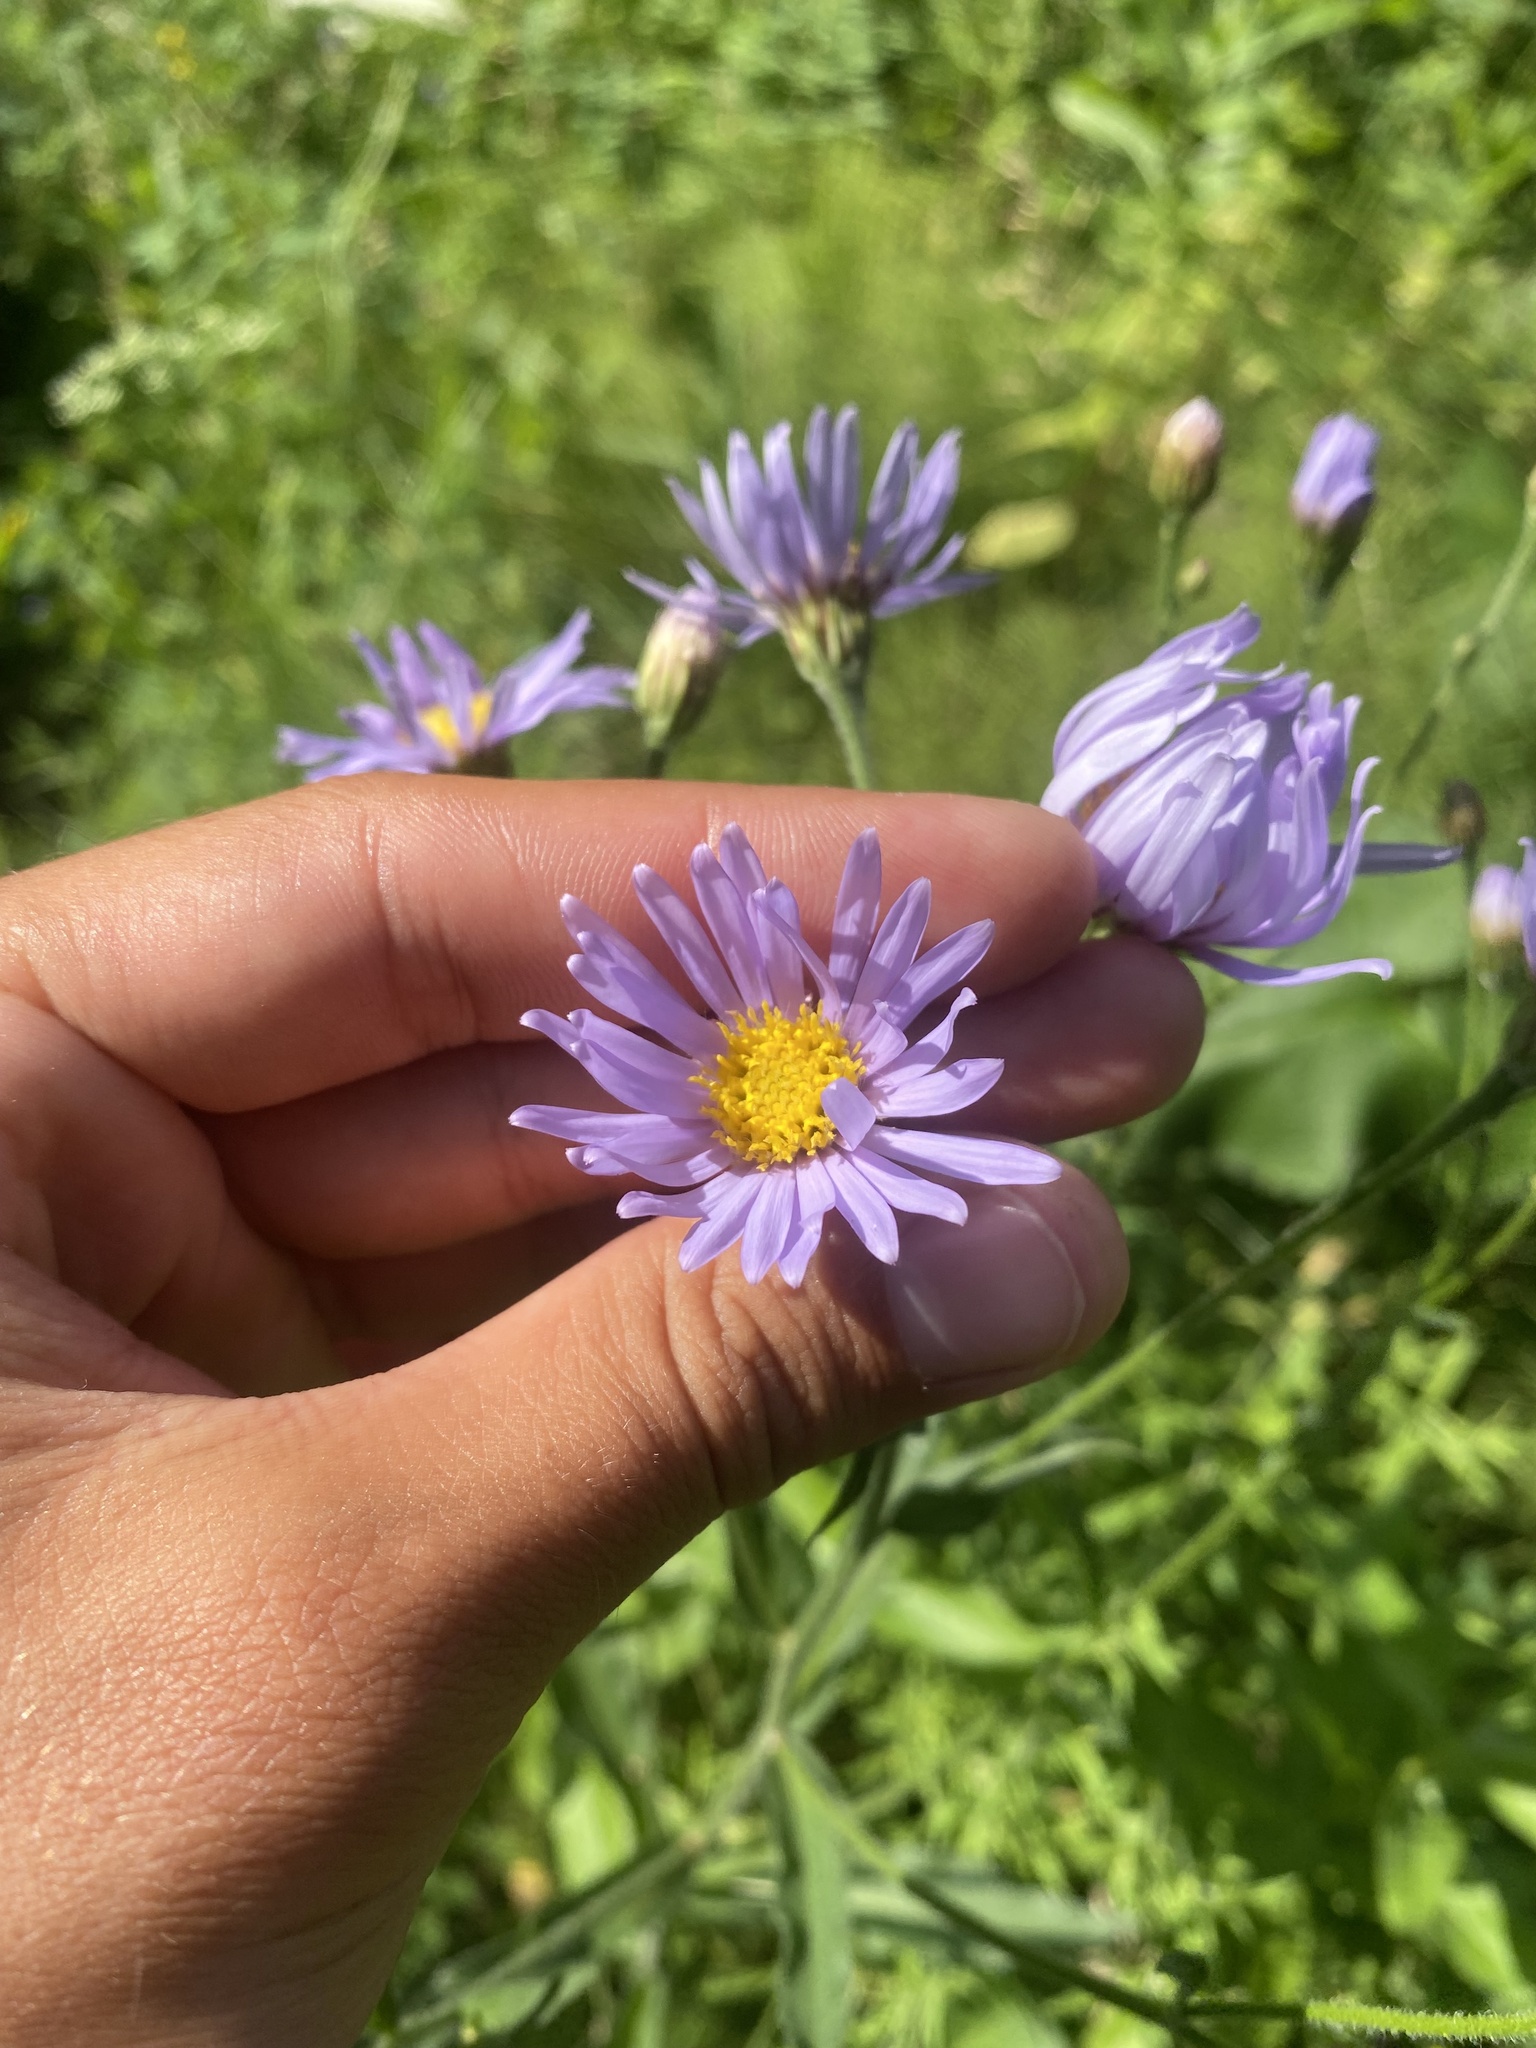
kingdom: Plantae
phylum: Tracheophyta
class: Magnoliopsida
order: Asterales
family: Asteraceae
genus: Aster
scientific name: Aster tataricus
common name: Tatarian aster
